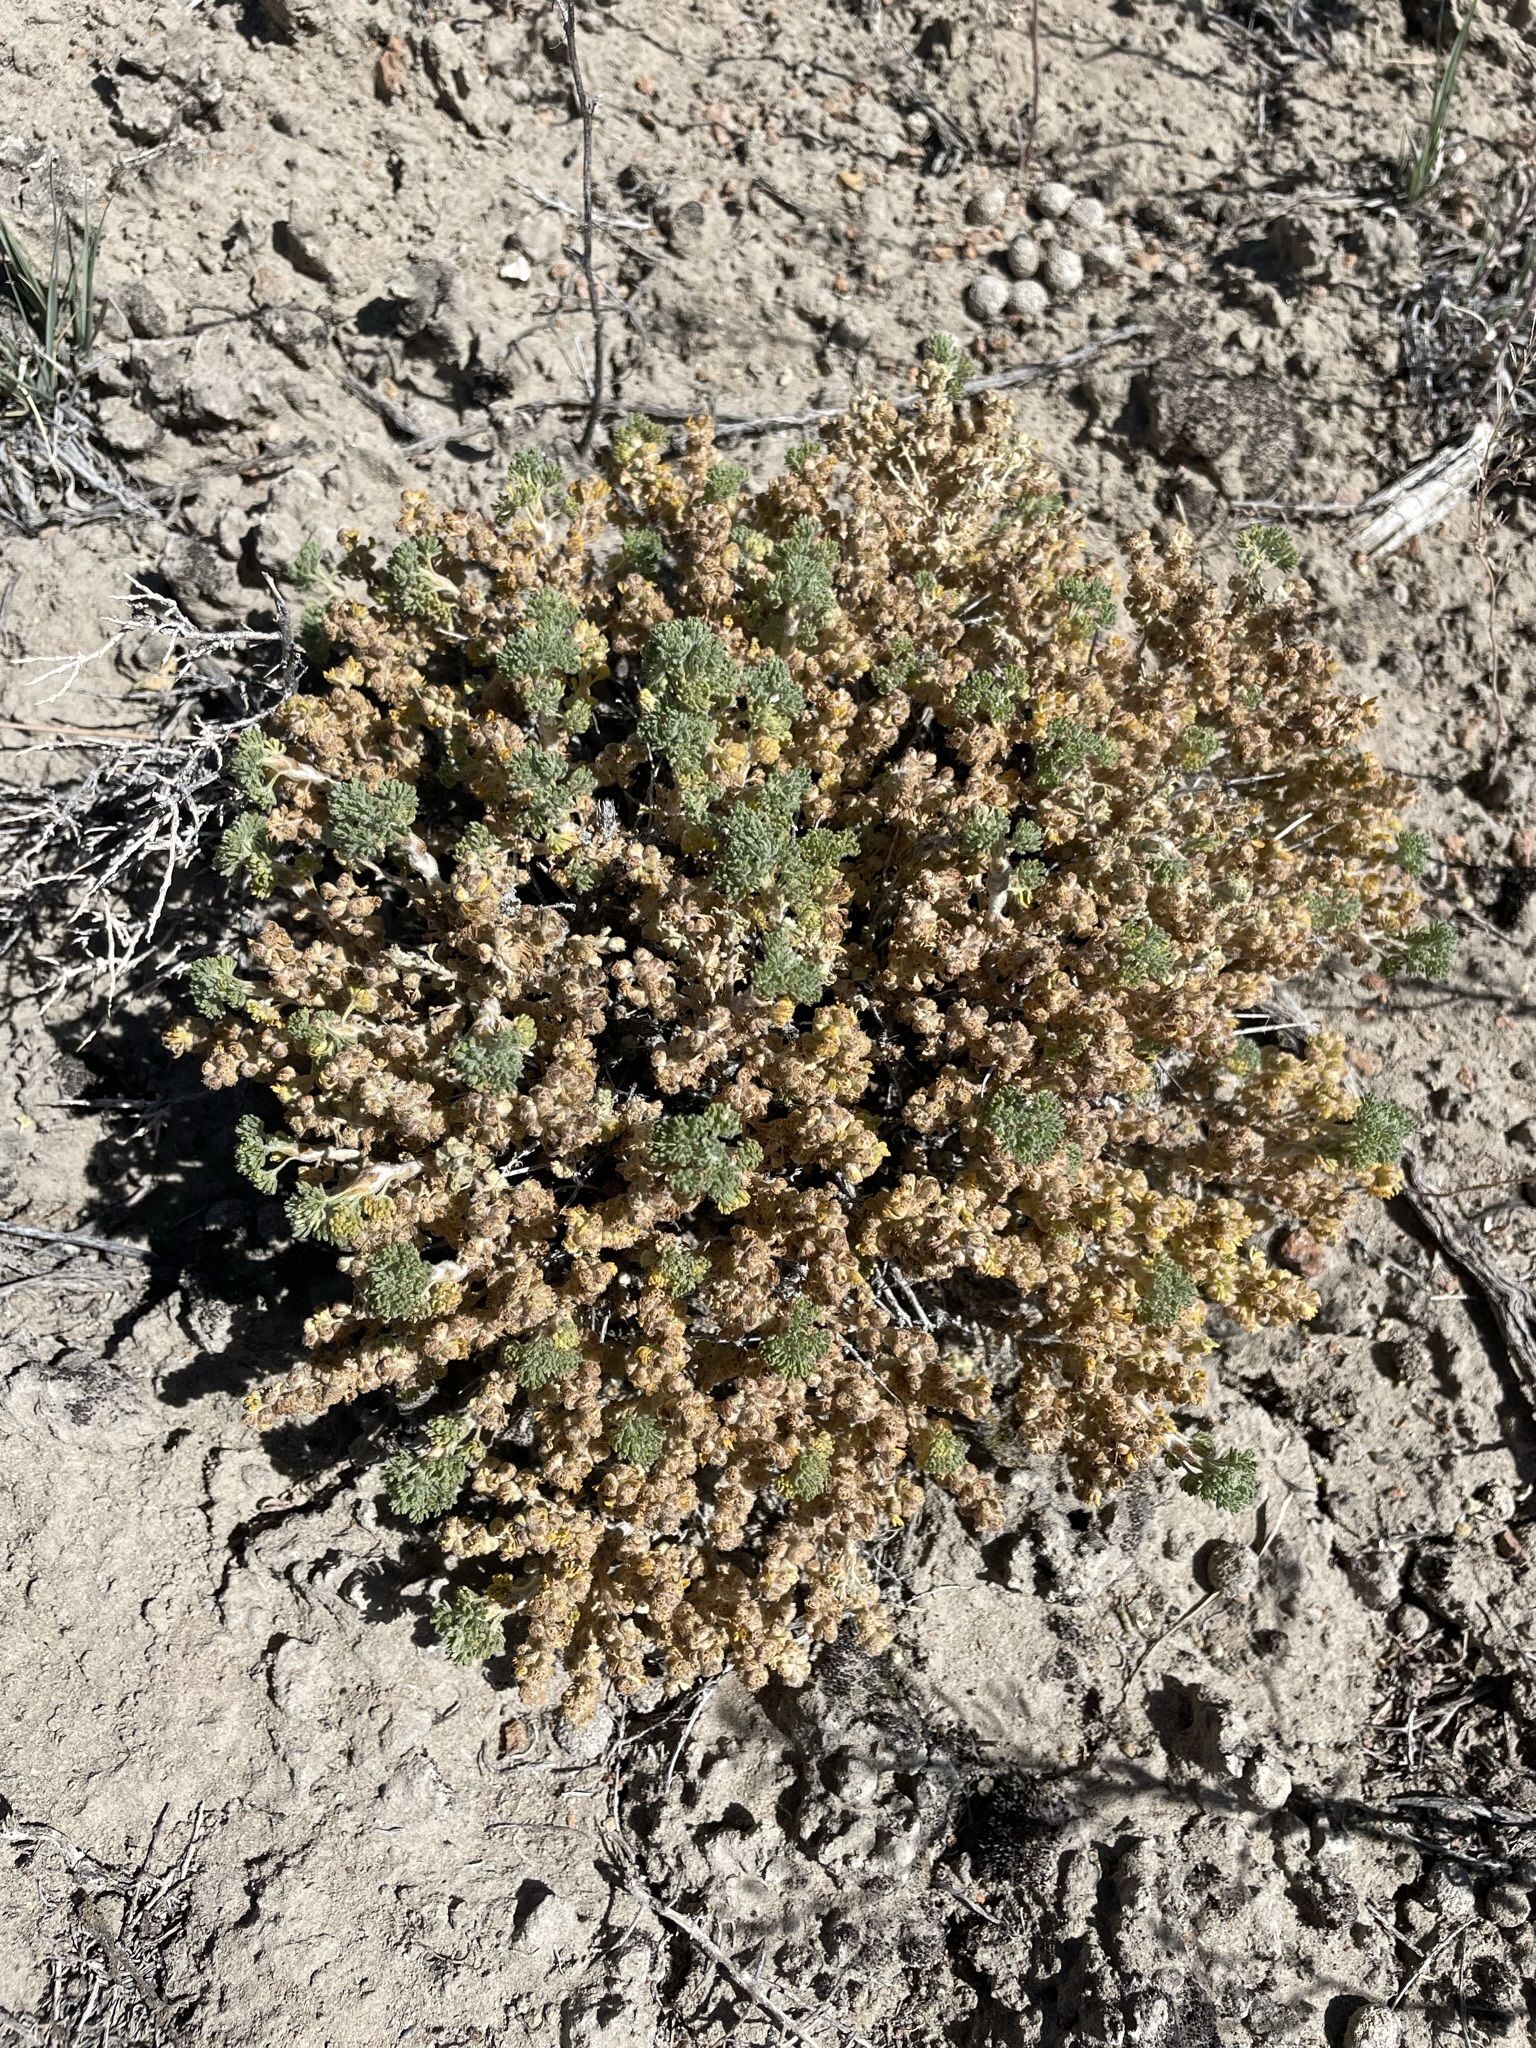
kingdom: Plantae
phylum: Tracheophyta
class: Magnoliopsida
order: Asterales
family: Asteraceae
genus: Artemisia
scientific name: Artemisia spinescens
